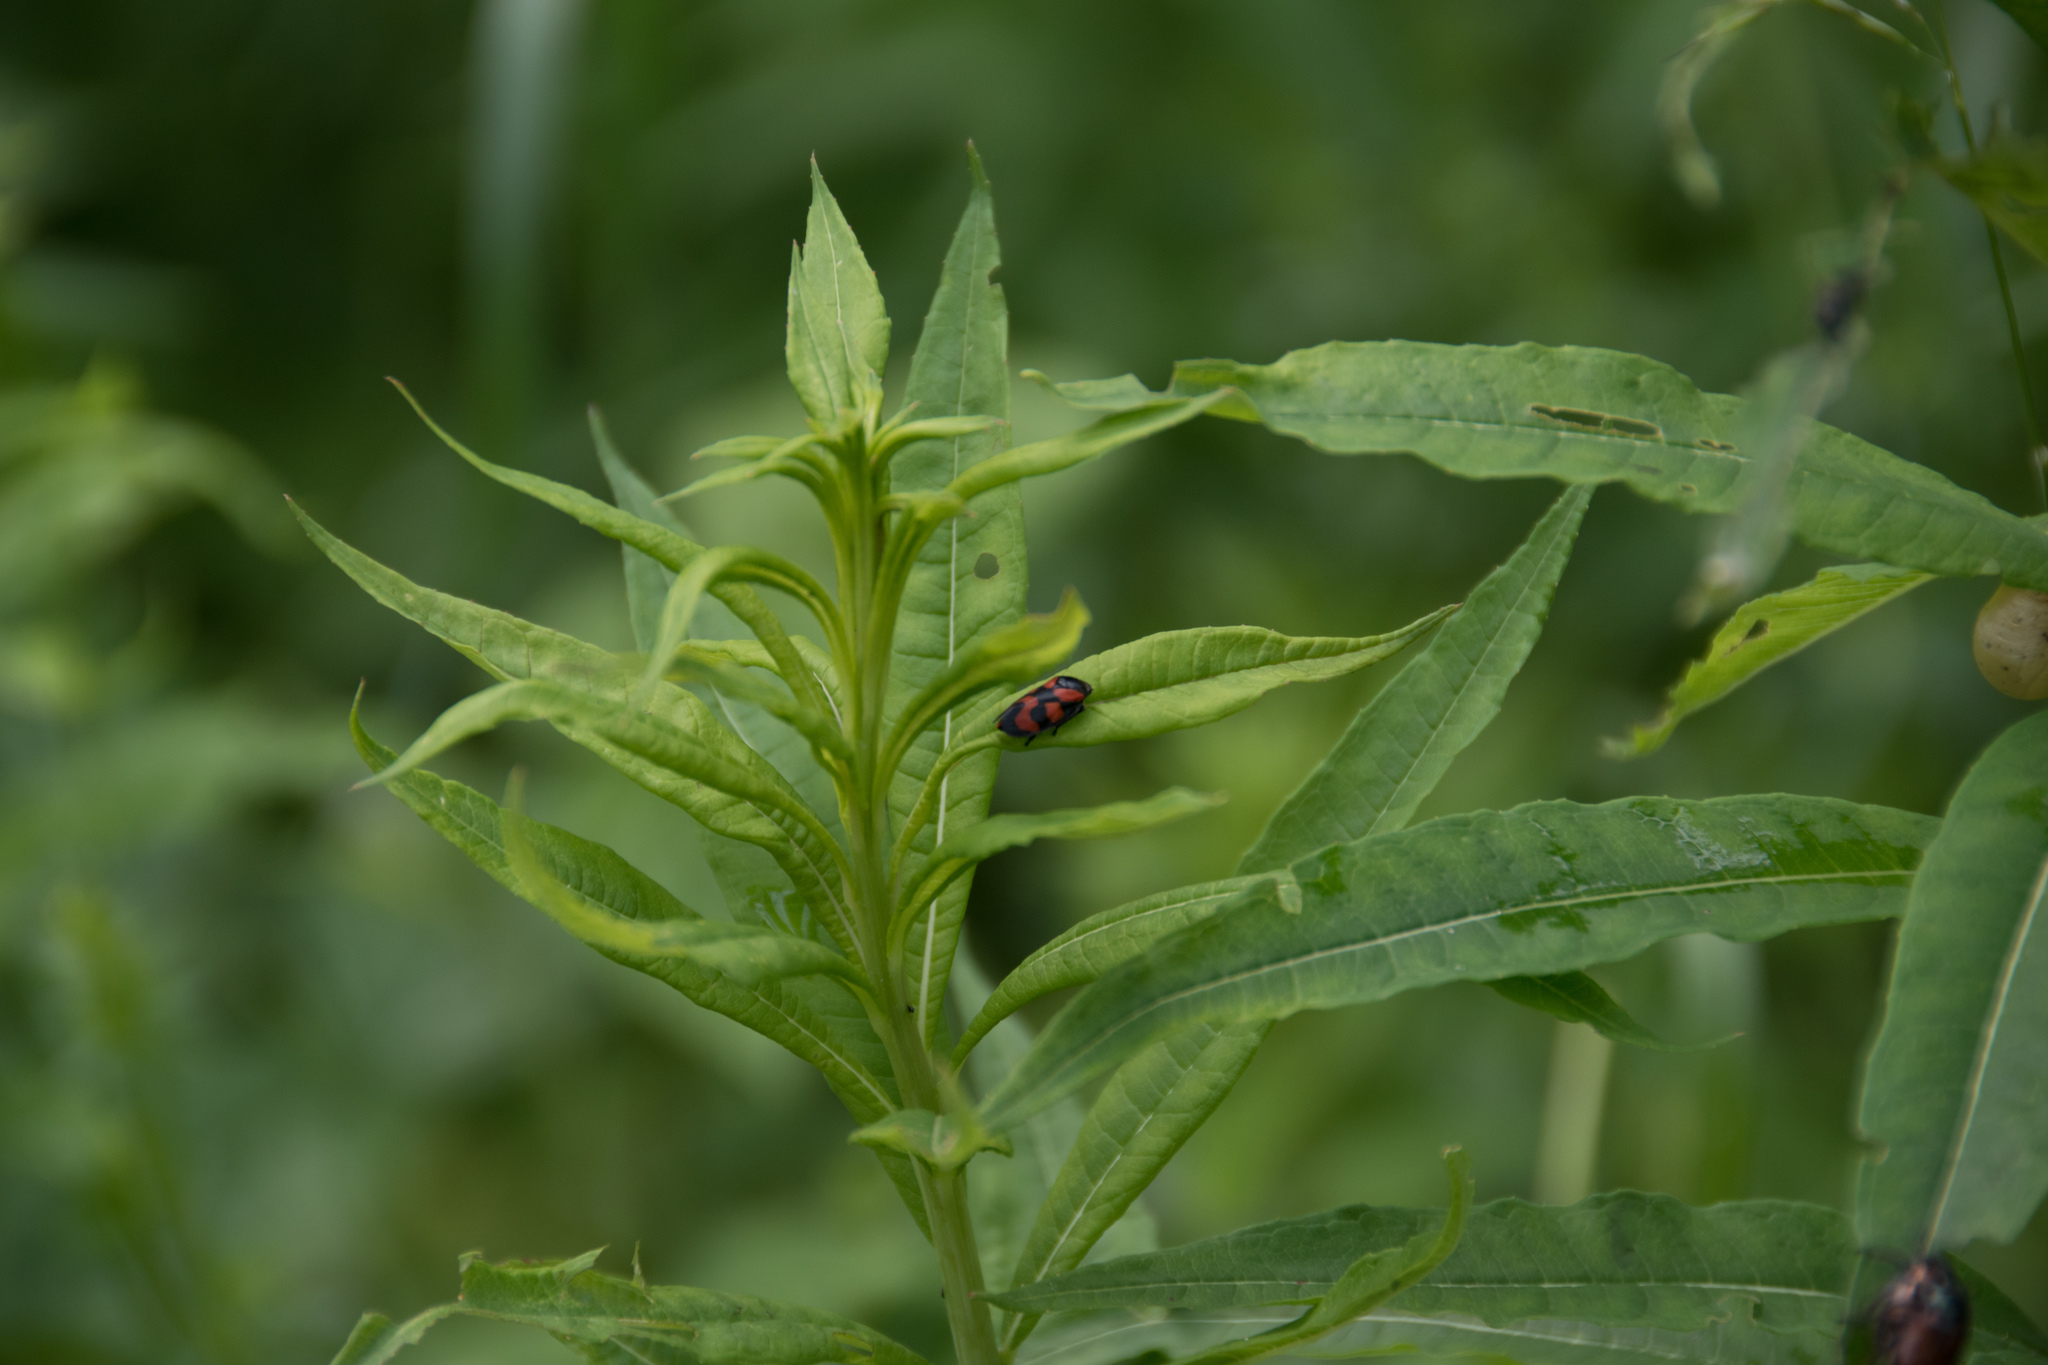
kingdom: Animalia
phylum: Arthropoda
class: Insecta
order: Hemiptera
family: Cercopidae
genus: Cercopis
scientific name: Cercopis vulnerata
